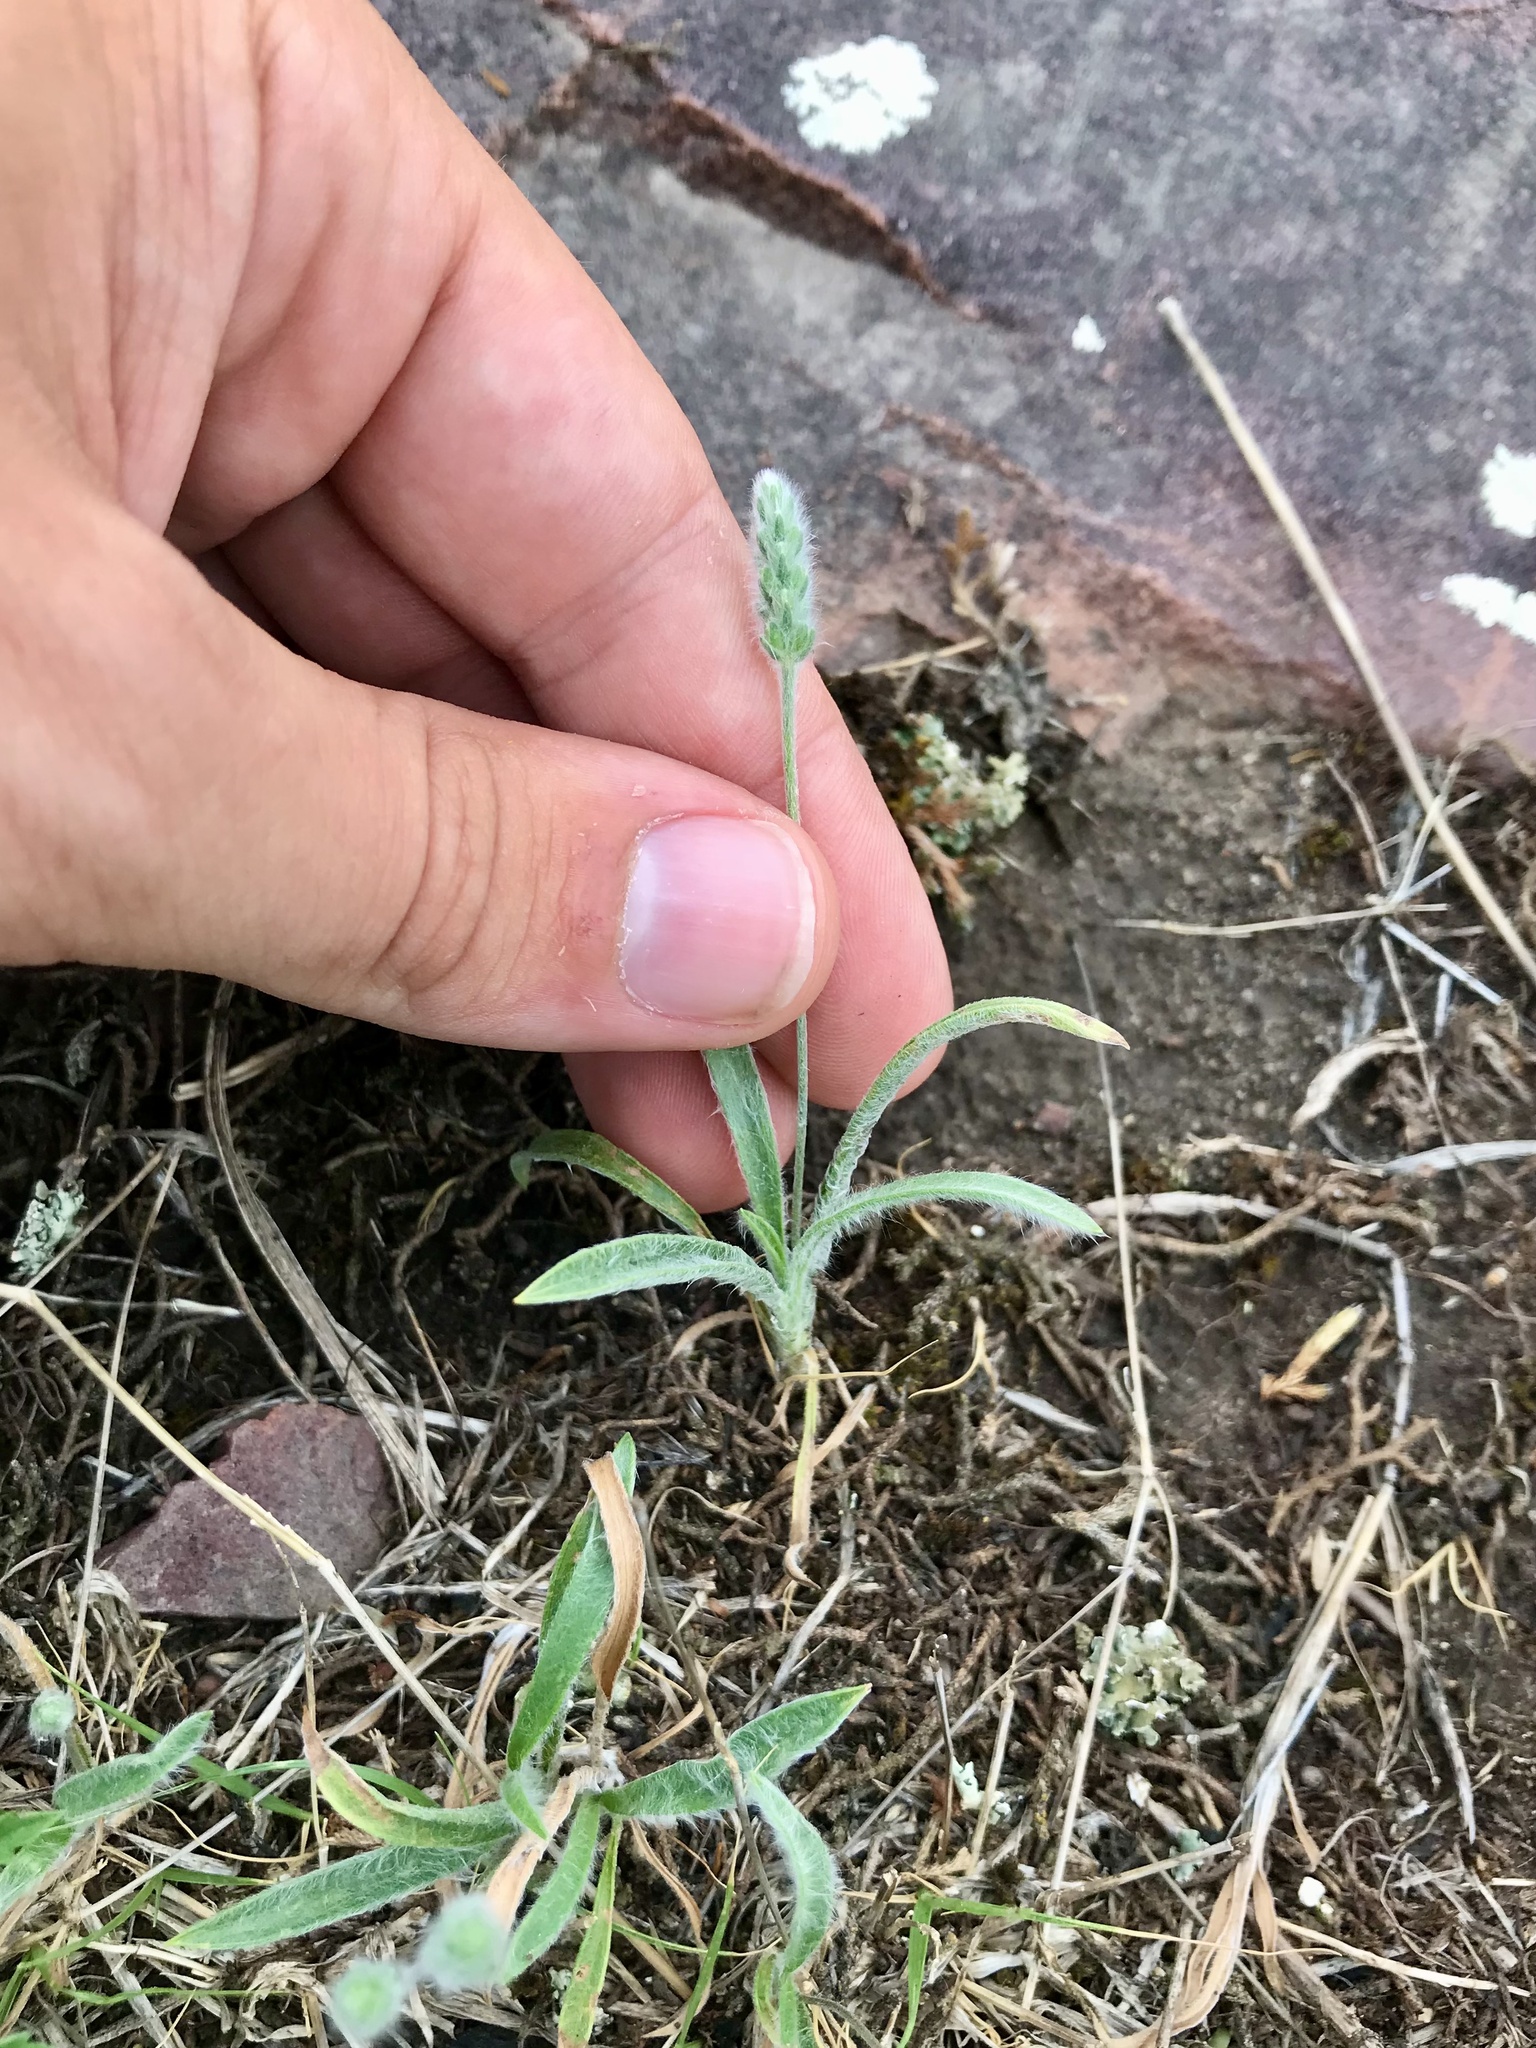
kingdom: Plantae
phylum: Tracheophyta
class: Magnoliopsida
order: Lamiales
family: Plantaginaceae
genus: Plantago
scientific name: Plantago patagonica
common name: Patagonia indian-wheat
